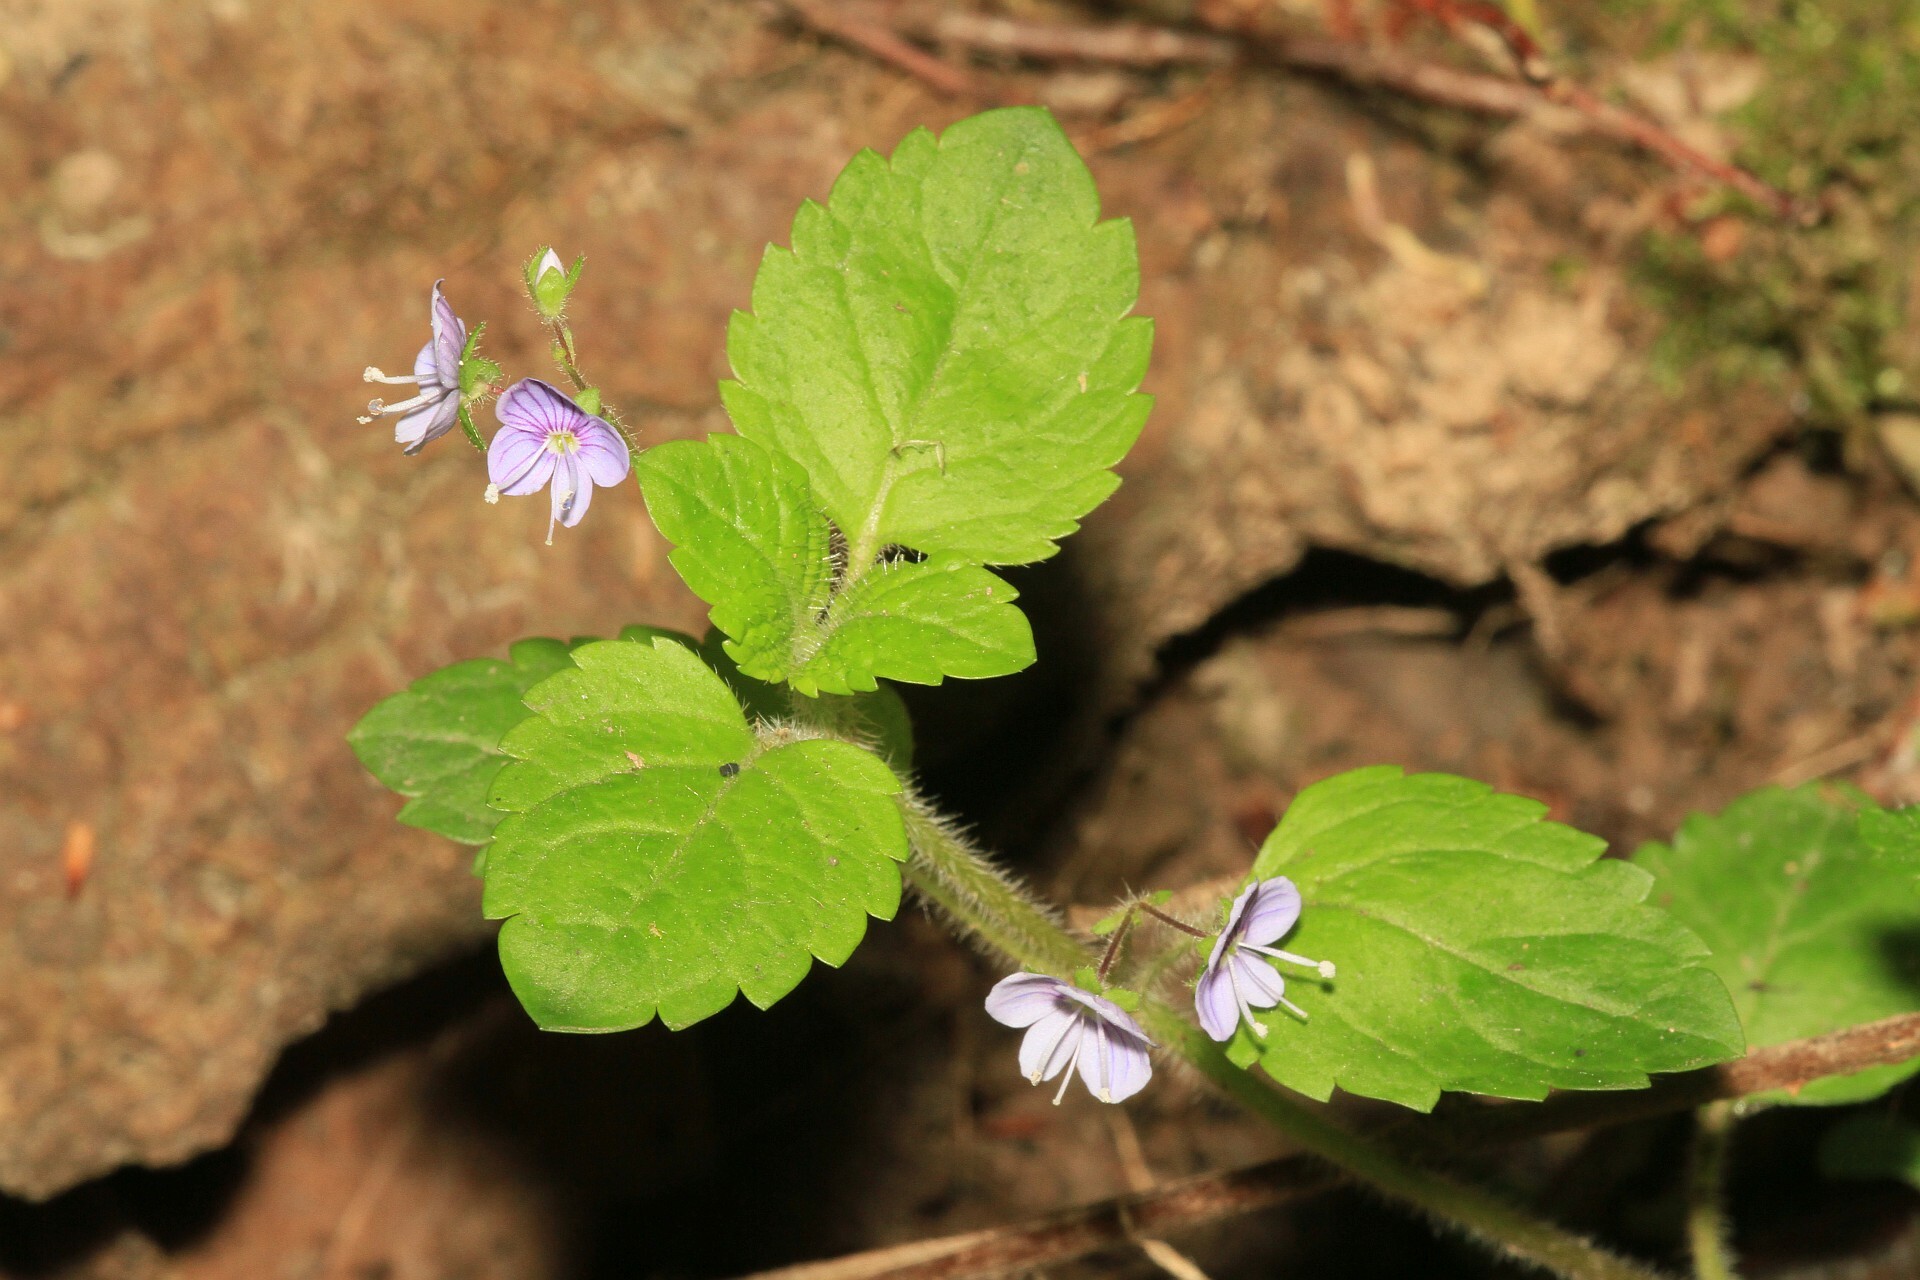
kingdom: Plantae
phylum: Tracheophyta
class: Magnoliopsida
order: Lamiales
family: Plantaginaceae
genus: Veronica
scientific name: Veronica montana
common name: Wood speedwell
